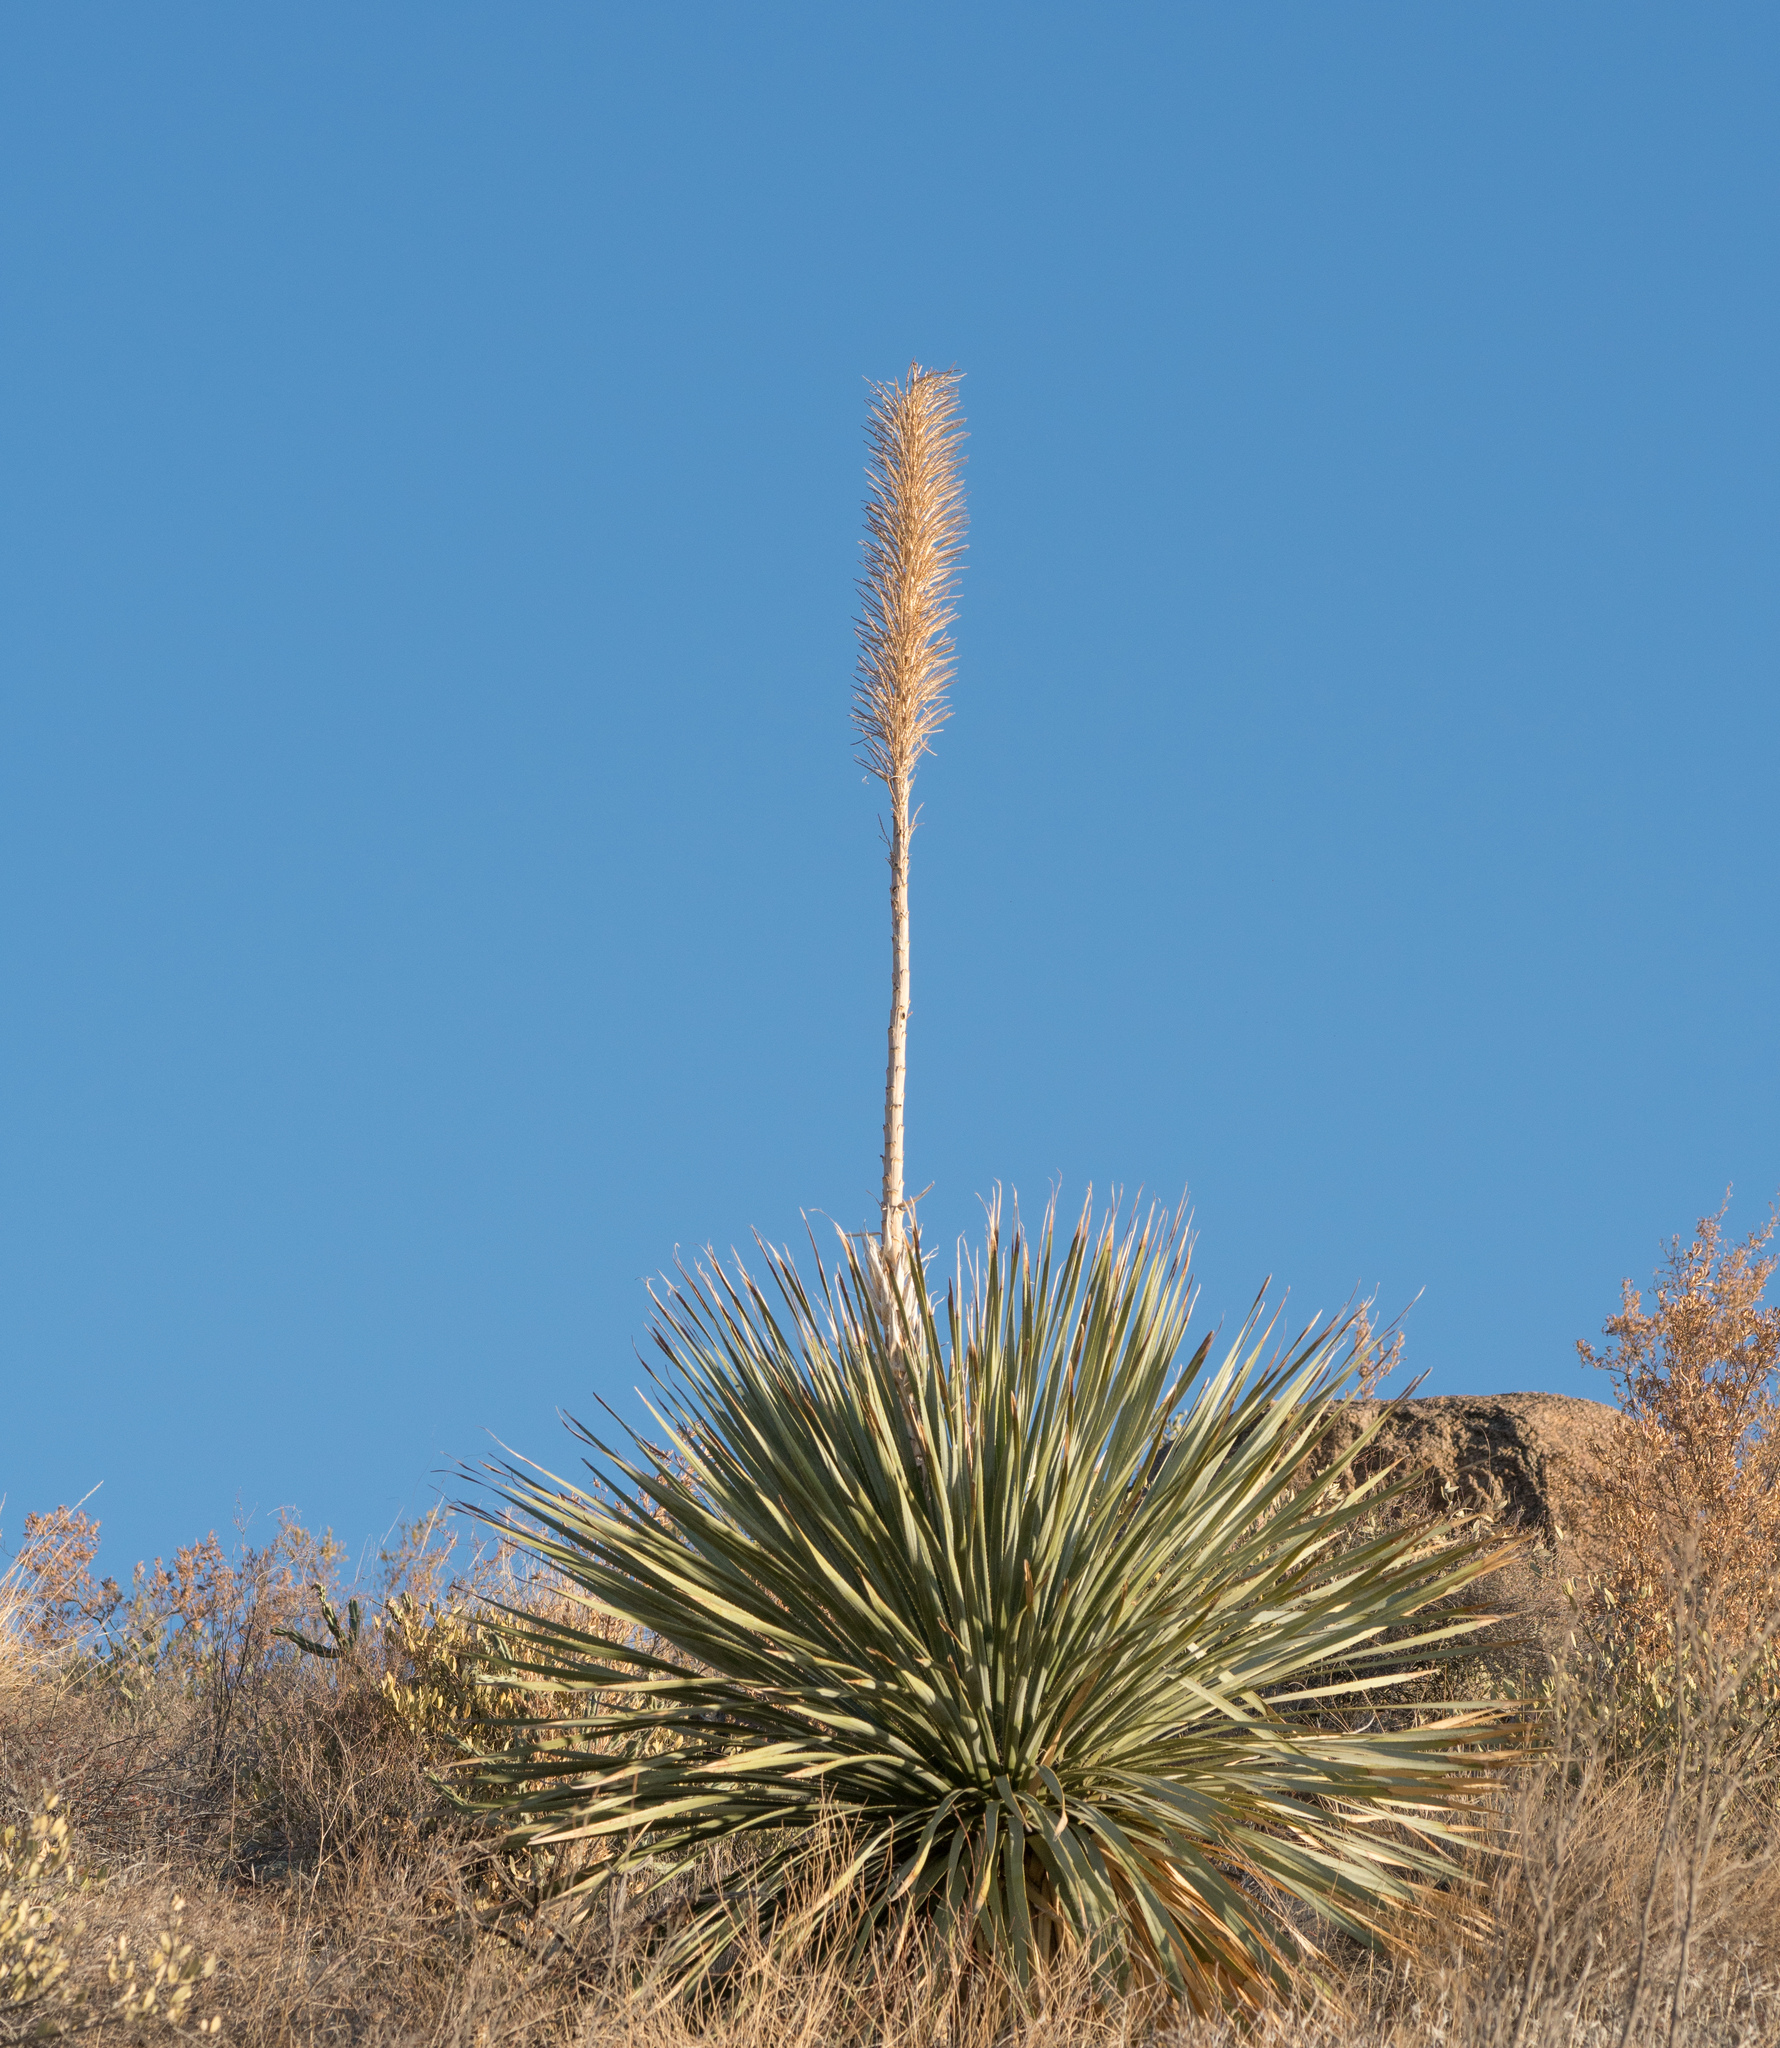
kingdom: Plantae
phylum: Tracheophyta
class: Liliopsida
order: Asparagales
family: Asparagaceae
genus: Dasylirion
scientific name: Dasylirion wheeleri
